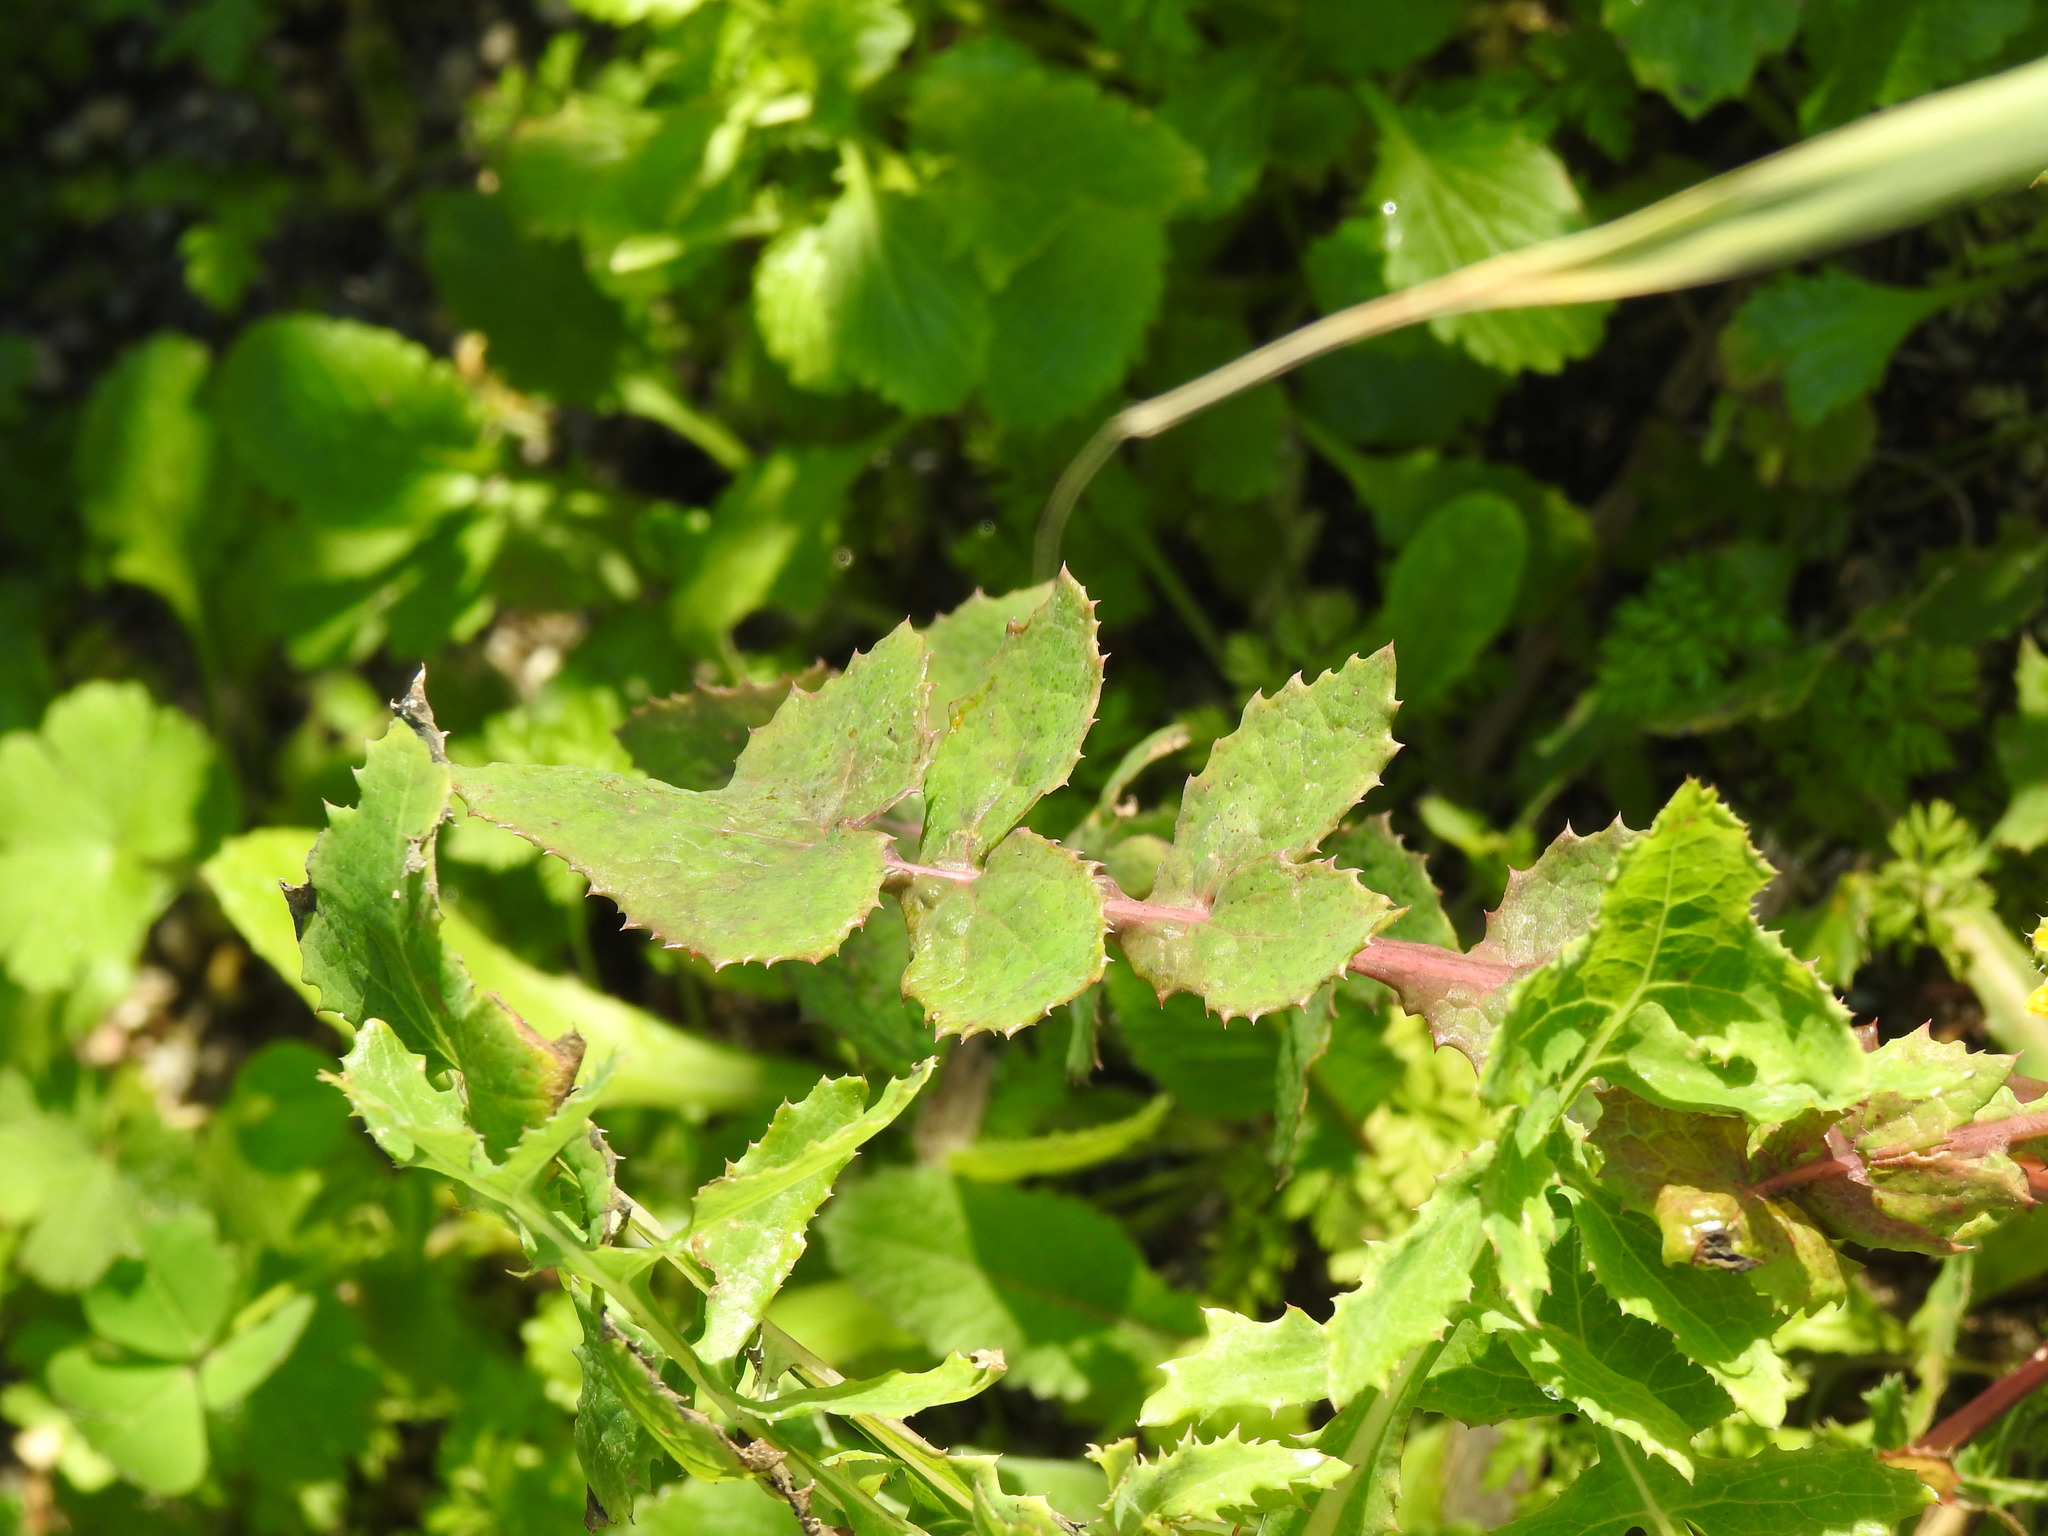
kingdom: Plantae
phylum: Tracheophyta
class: Magnoliopsida
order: Asterales
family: Asteraceae
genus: Sonchus
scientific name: Sonchus oleraceus
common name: Common sowthistle
